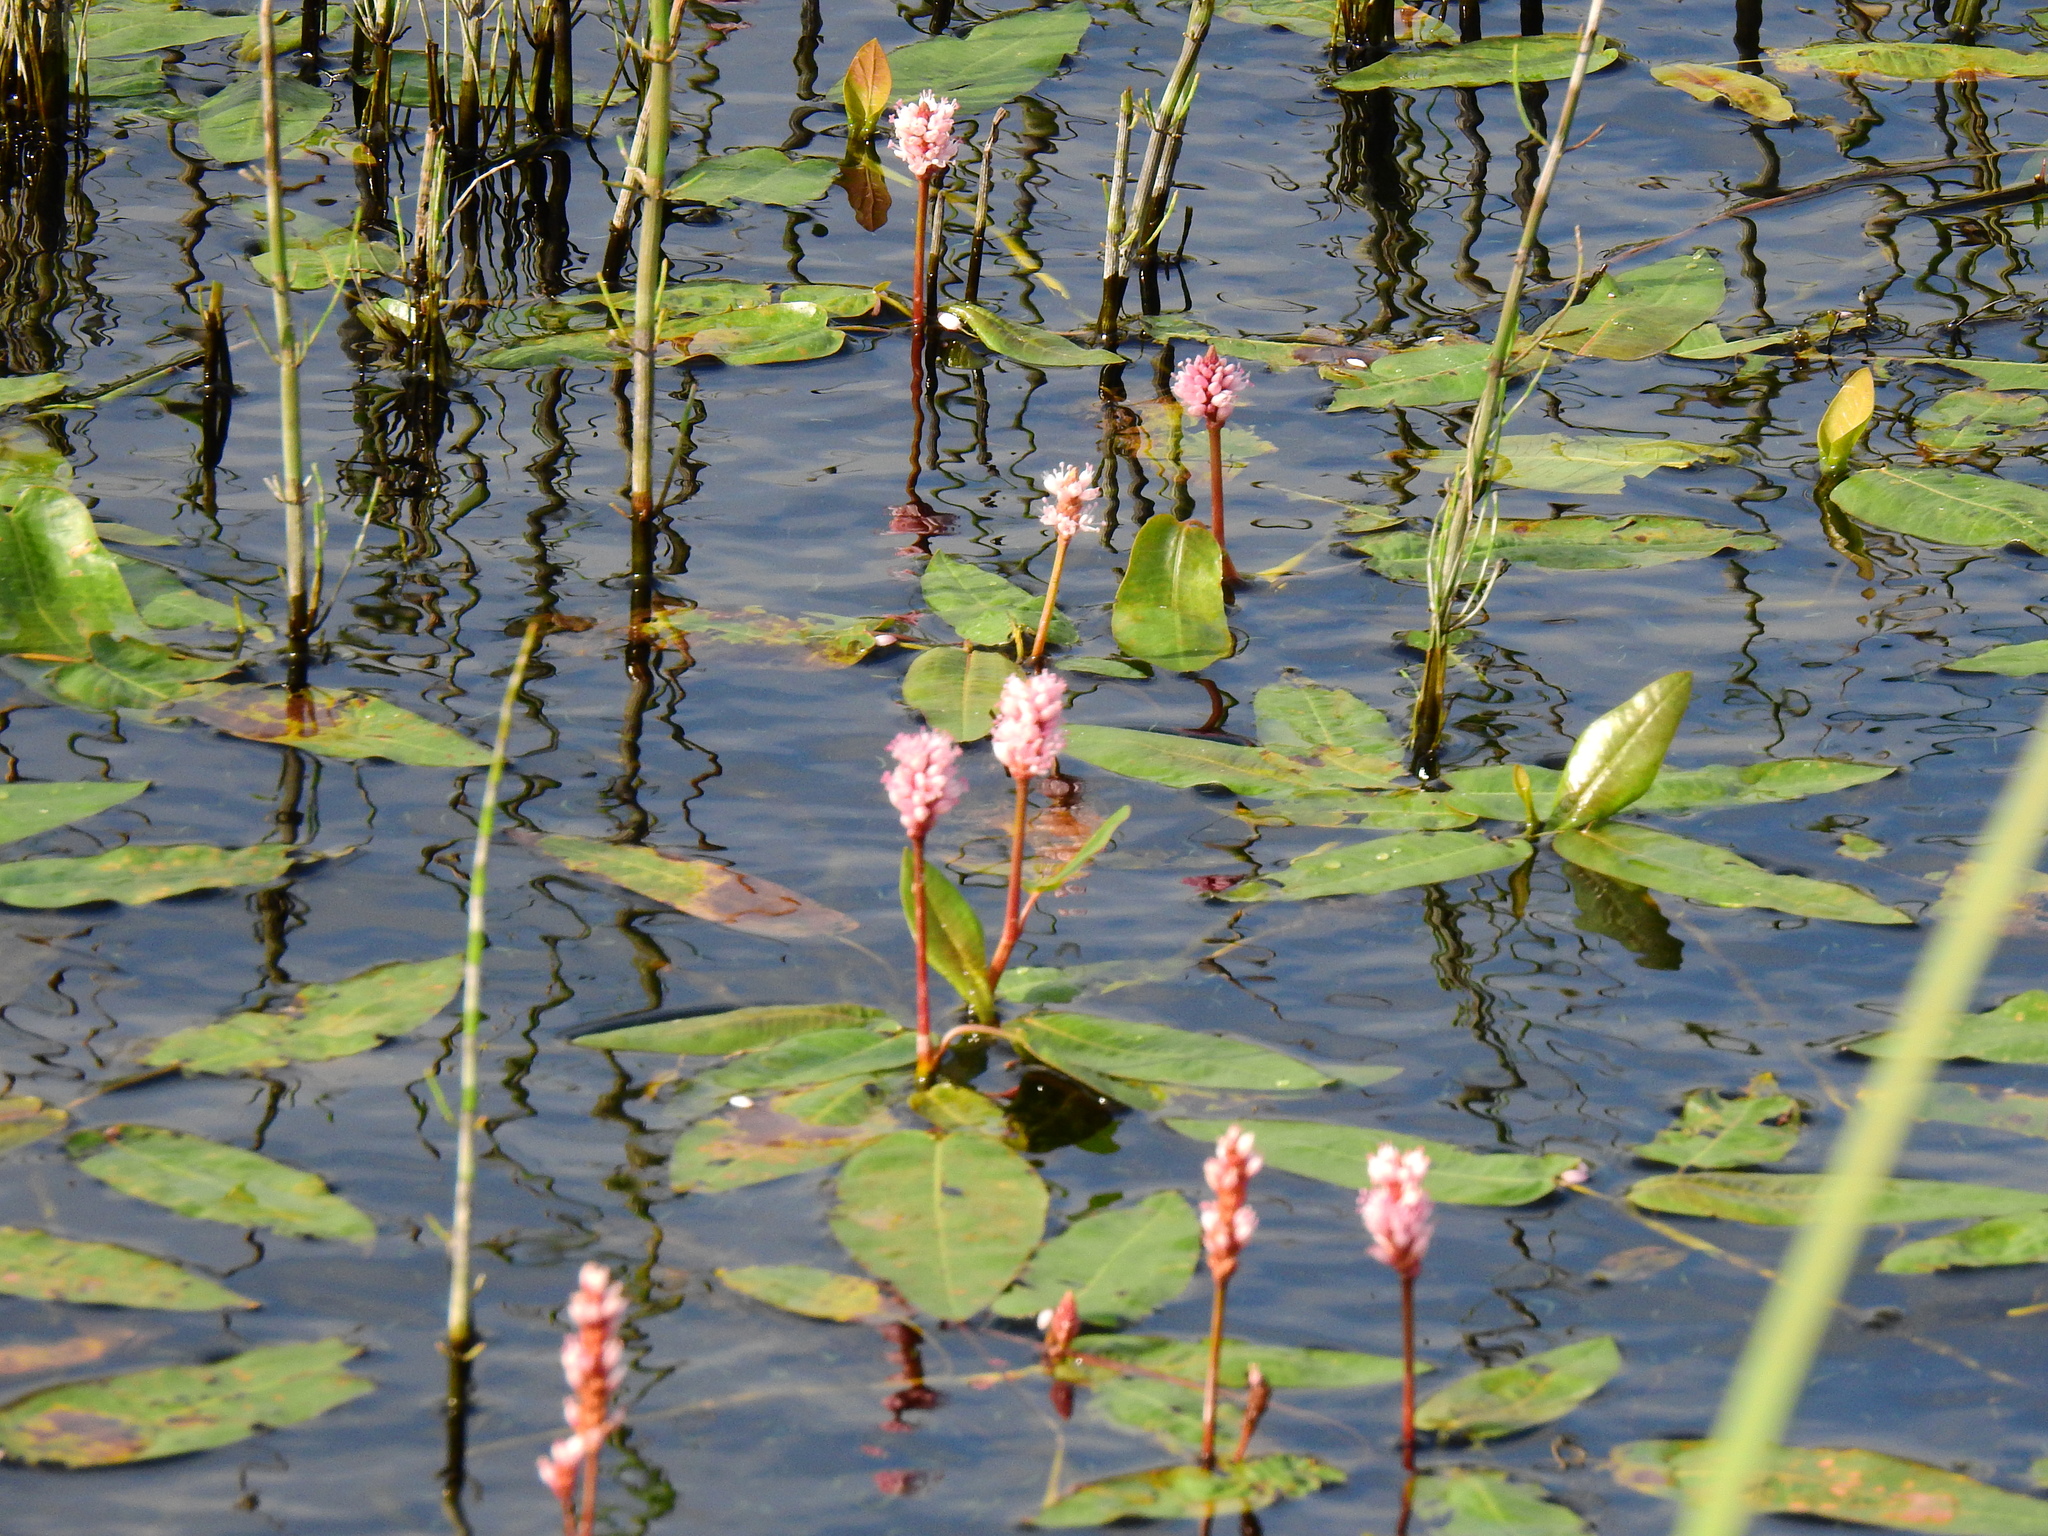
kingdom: Plantae
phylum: Tracheophyta
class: Magnoliopsida
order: Caryophyllales
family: Polygonaceae
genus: Persicaria
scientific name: Persicaria amphibia
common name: Amphibious bistort
